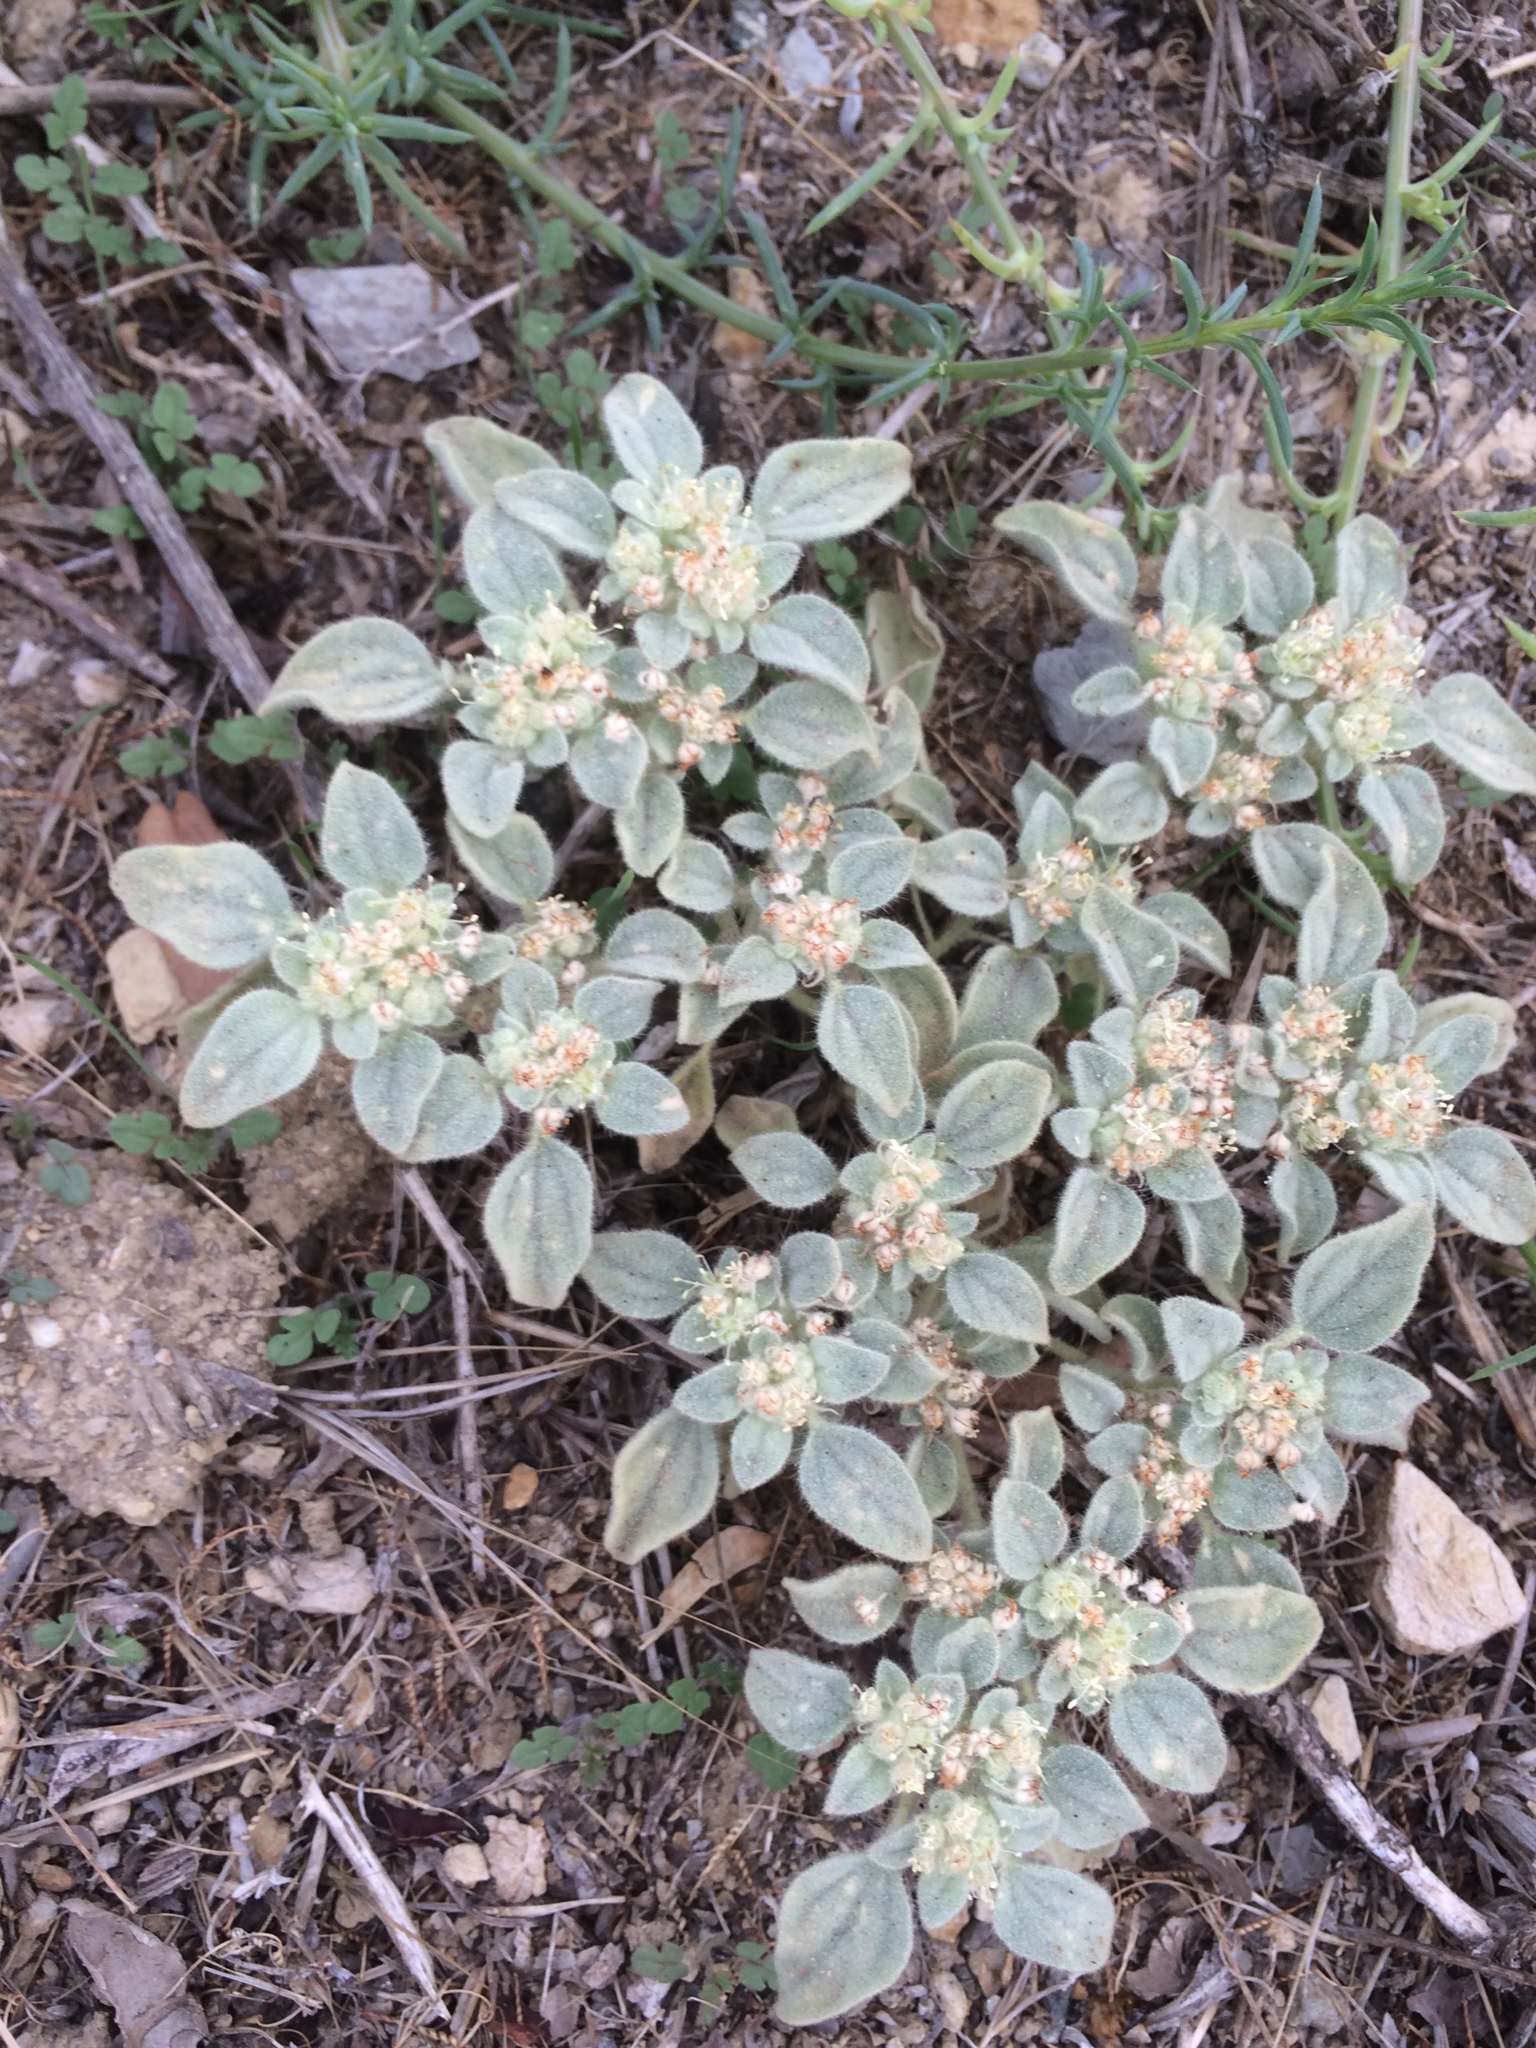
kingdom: Plantae
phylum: Tracheophyta
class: Magnoliopsida
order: Malpighiales
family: Euphorbiaceae
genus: Croton
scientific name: Croton setiger
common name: Dove weed
